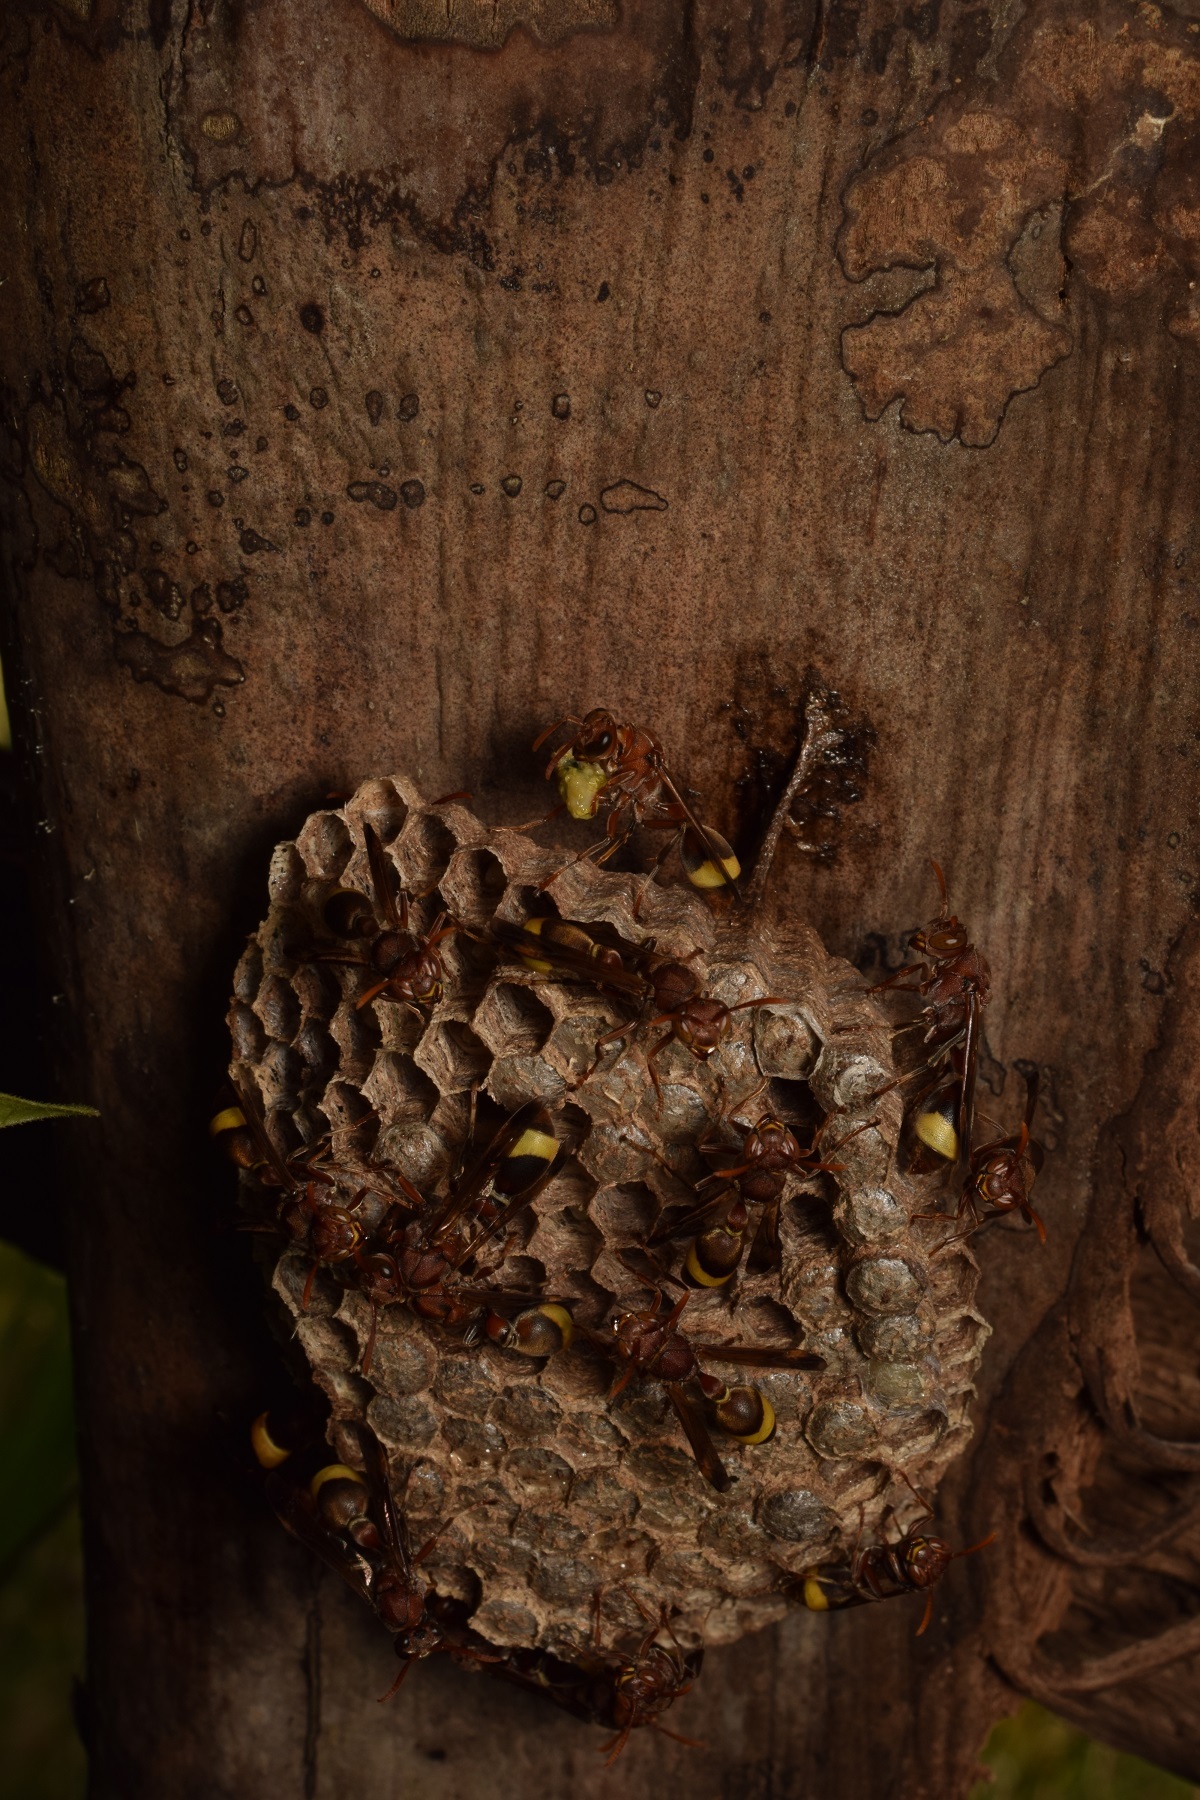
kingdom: Animalia
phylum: Arthropoda
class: Insecta
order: Hymenoptera
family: Vespidae
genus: Ropalidia
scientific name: Ropalidia
